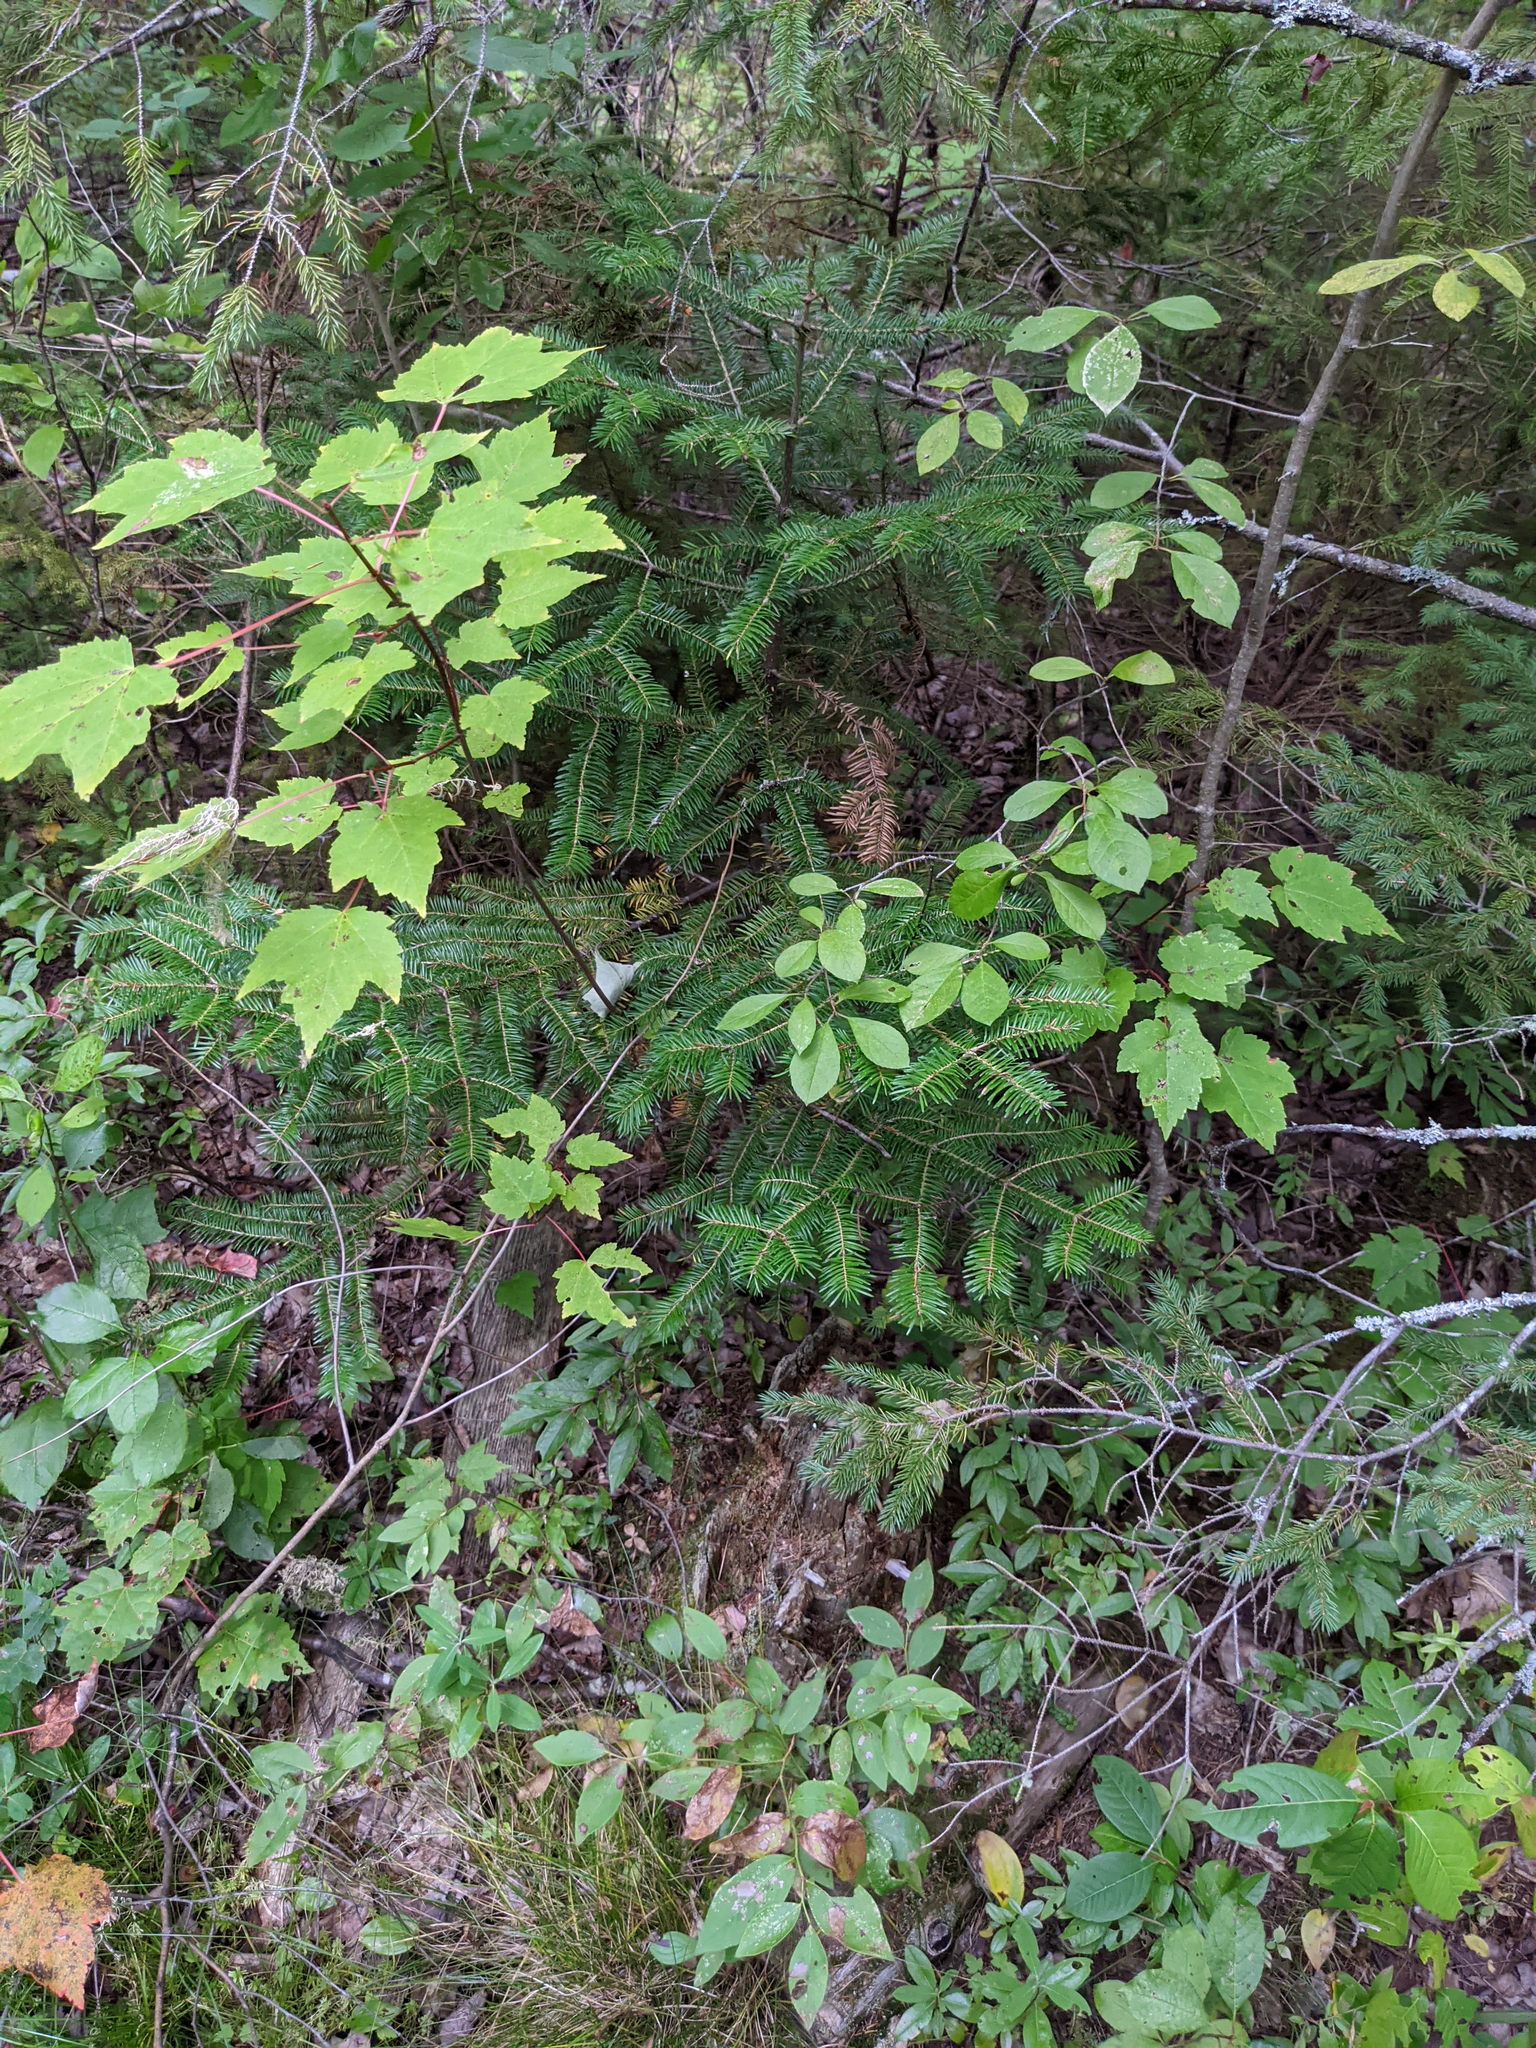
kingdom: Plantae
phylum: Tracheophyta
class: Magnoliopsida
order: Sapindales
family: Sapindaceae
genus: Acer
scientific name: Acer rubrum
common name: Red maple
